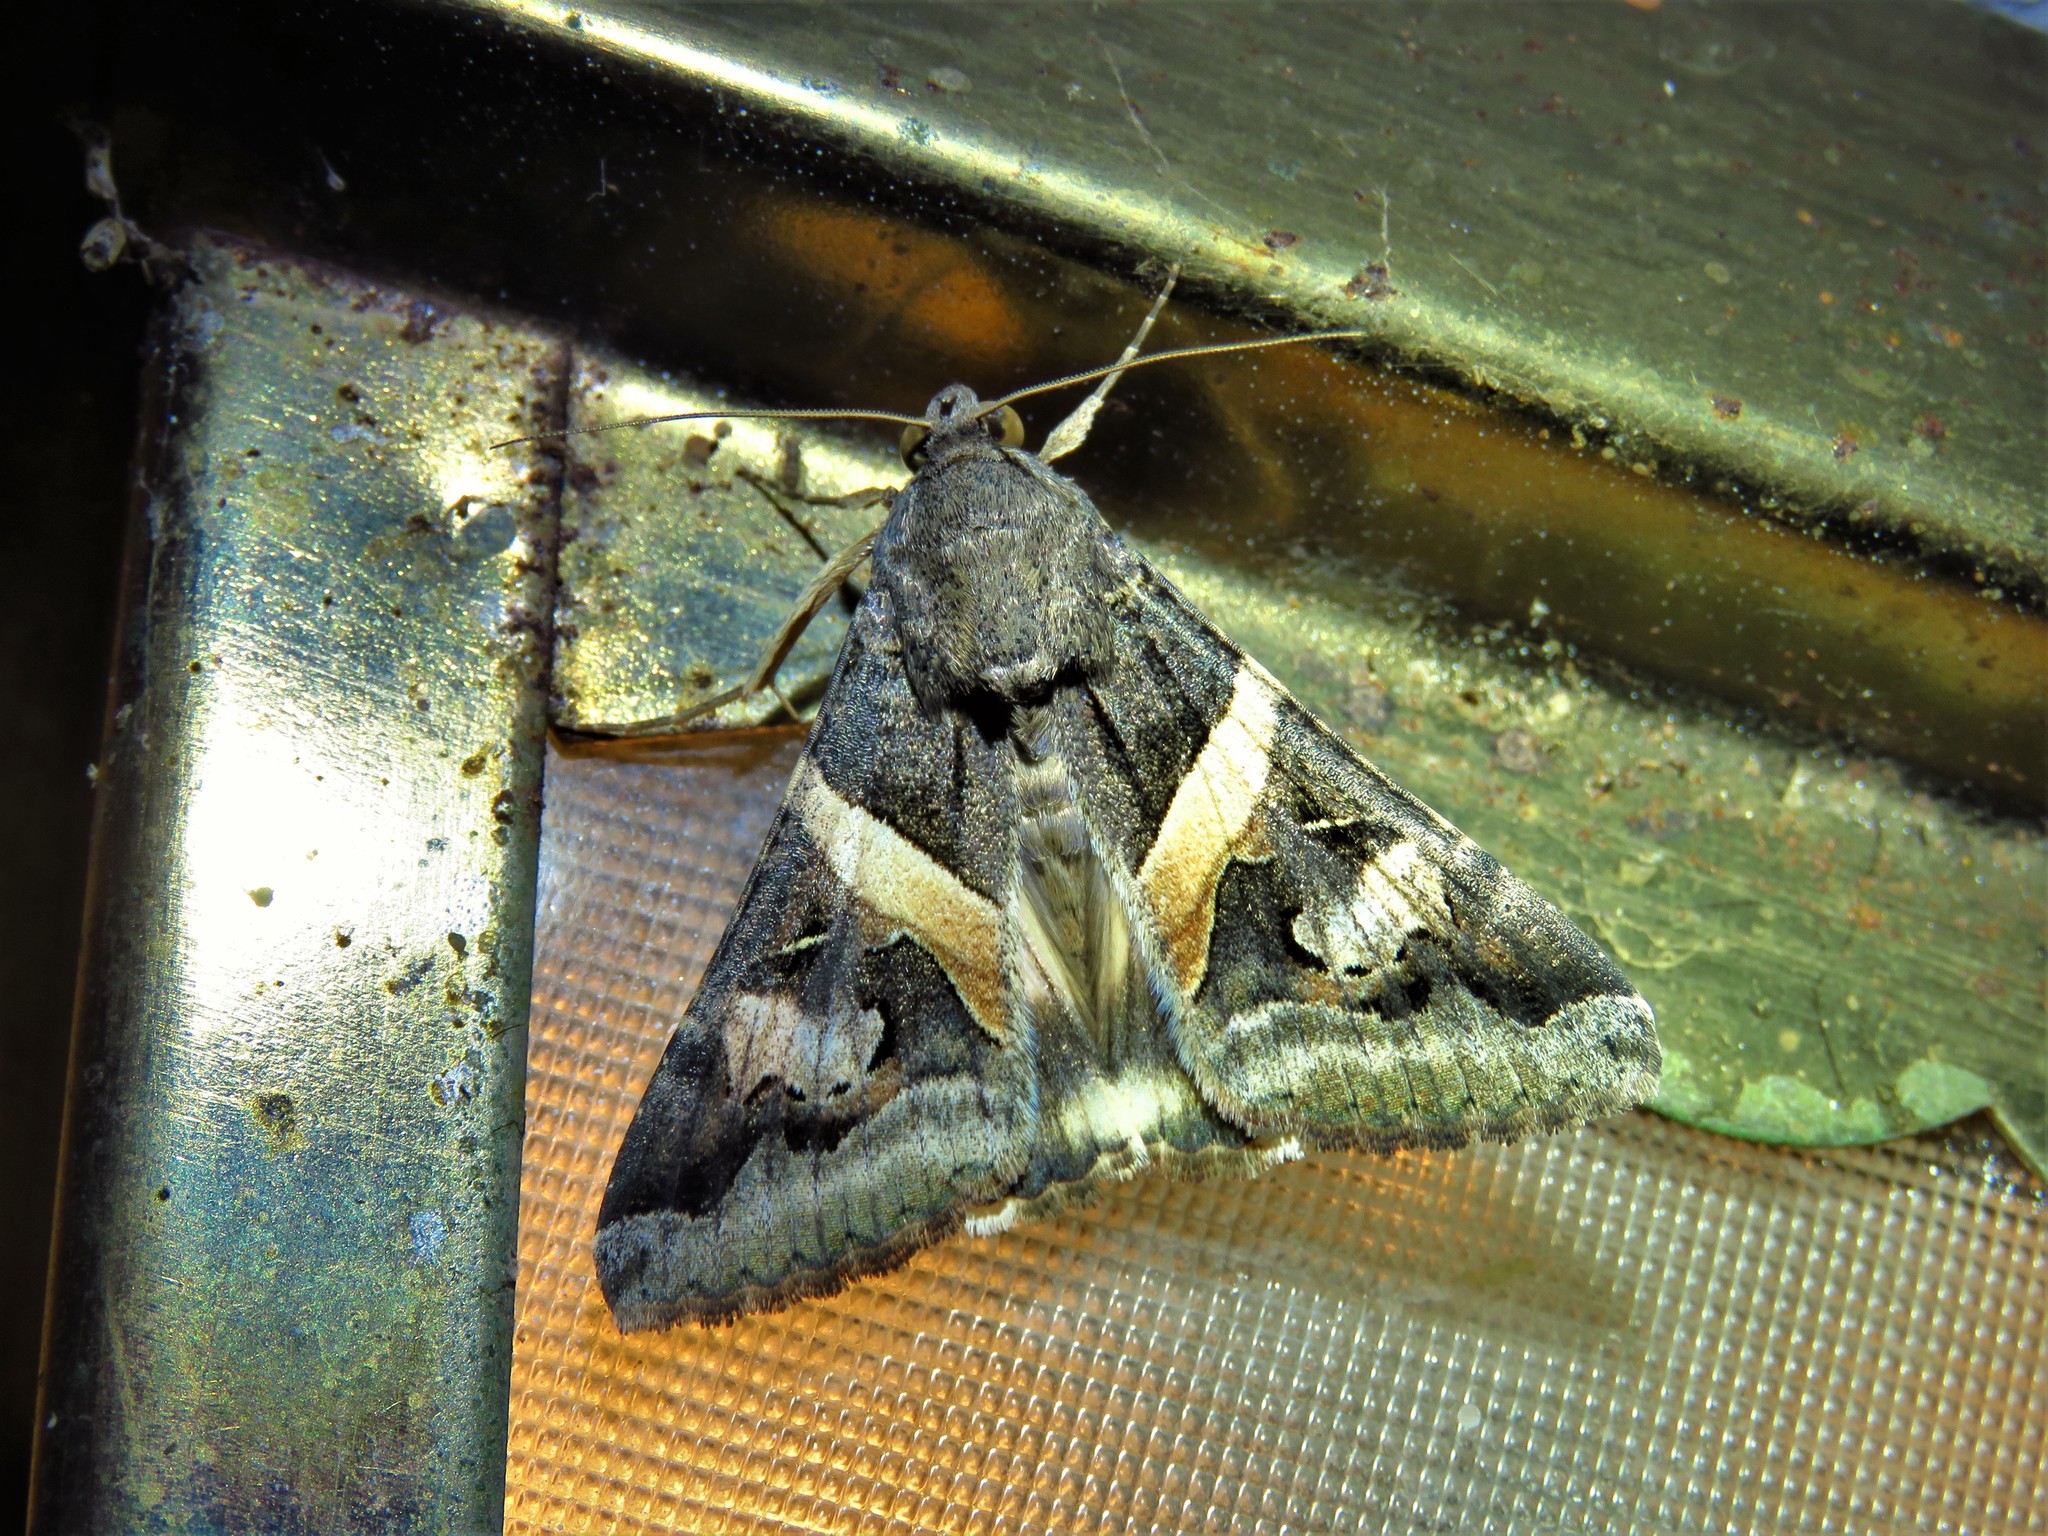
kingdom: Animalia
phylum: Arthropoda
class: Insecta
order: Lepidoptera
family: Erebidae
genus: Melipotis
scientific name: Melipotis indomita
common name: Moth
